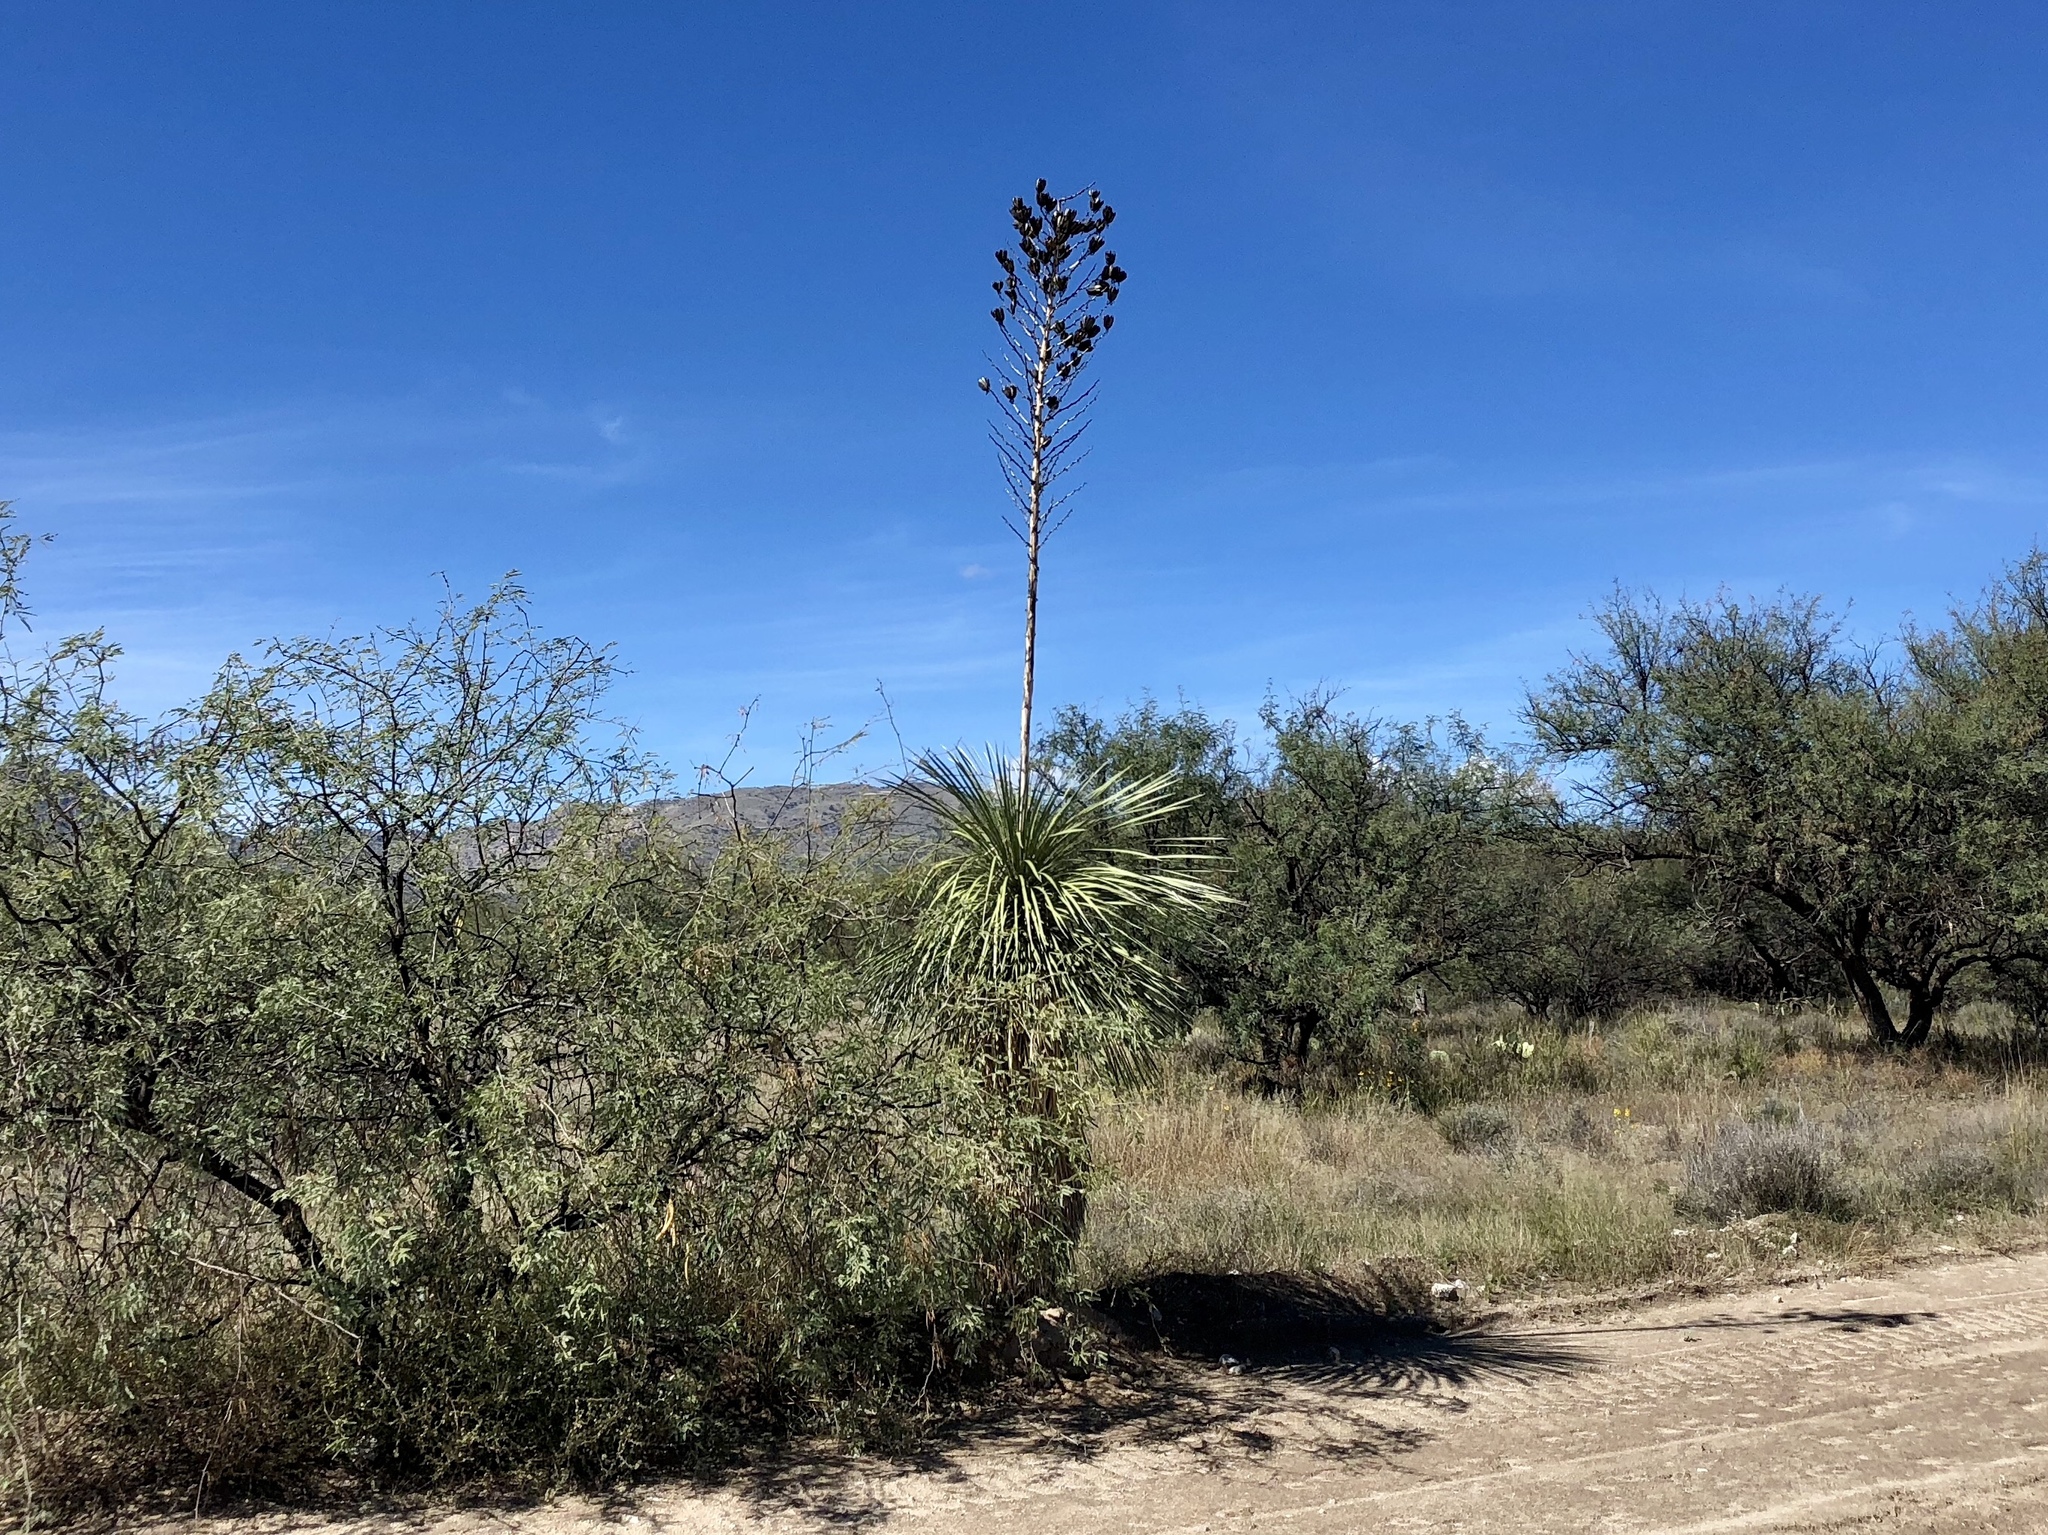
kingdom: Plantae
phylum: Tracheophyta
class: Liliopsida
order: Asparagales
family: Asparagaceae
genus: Yucca
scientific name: Yucca elata
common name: Palmella
